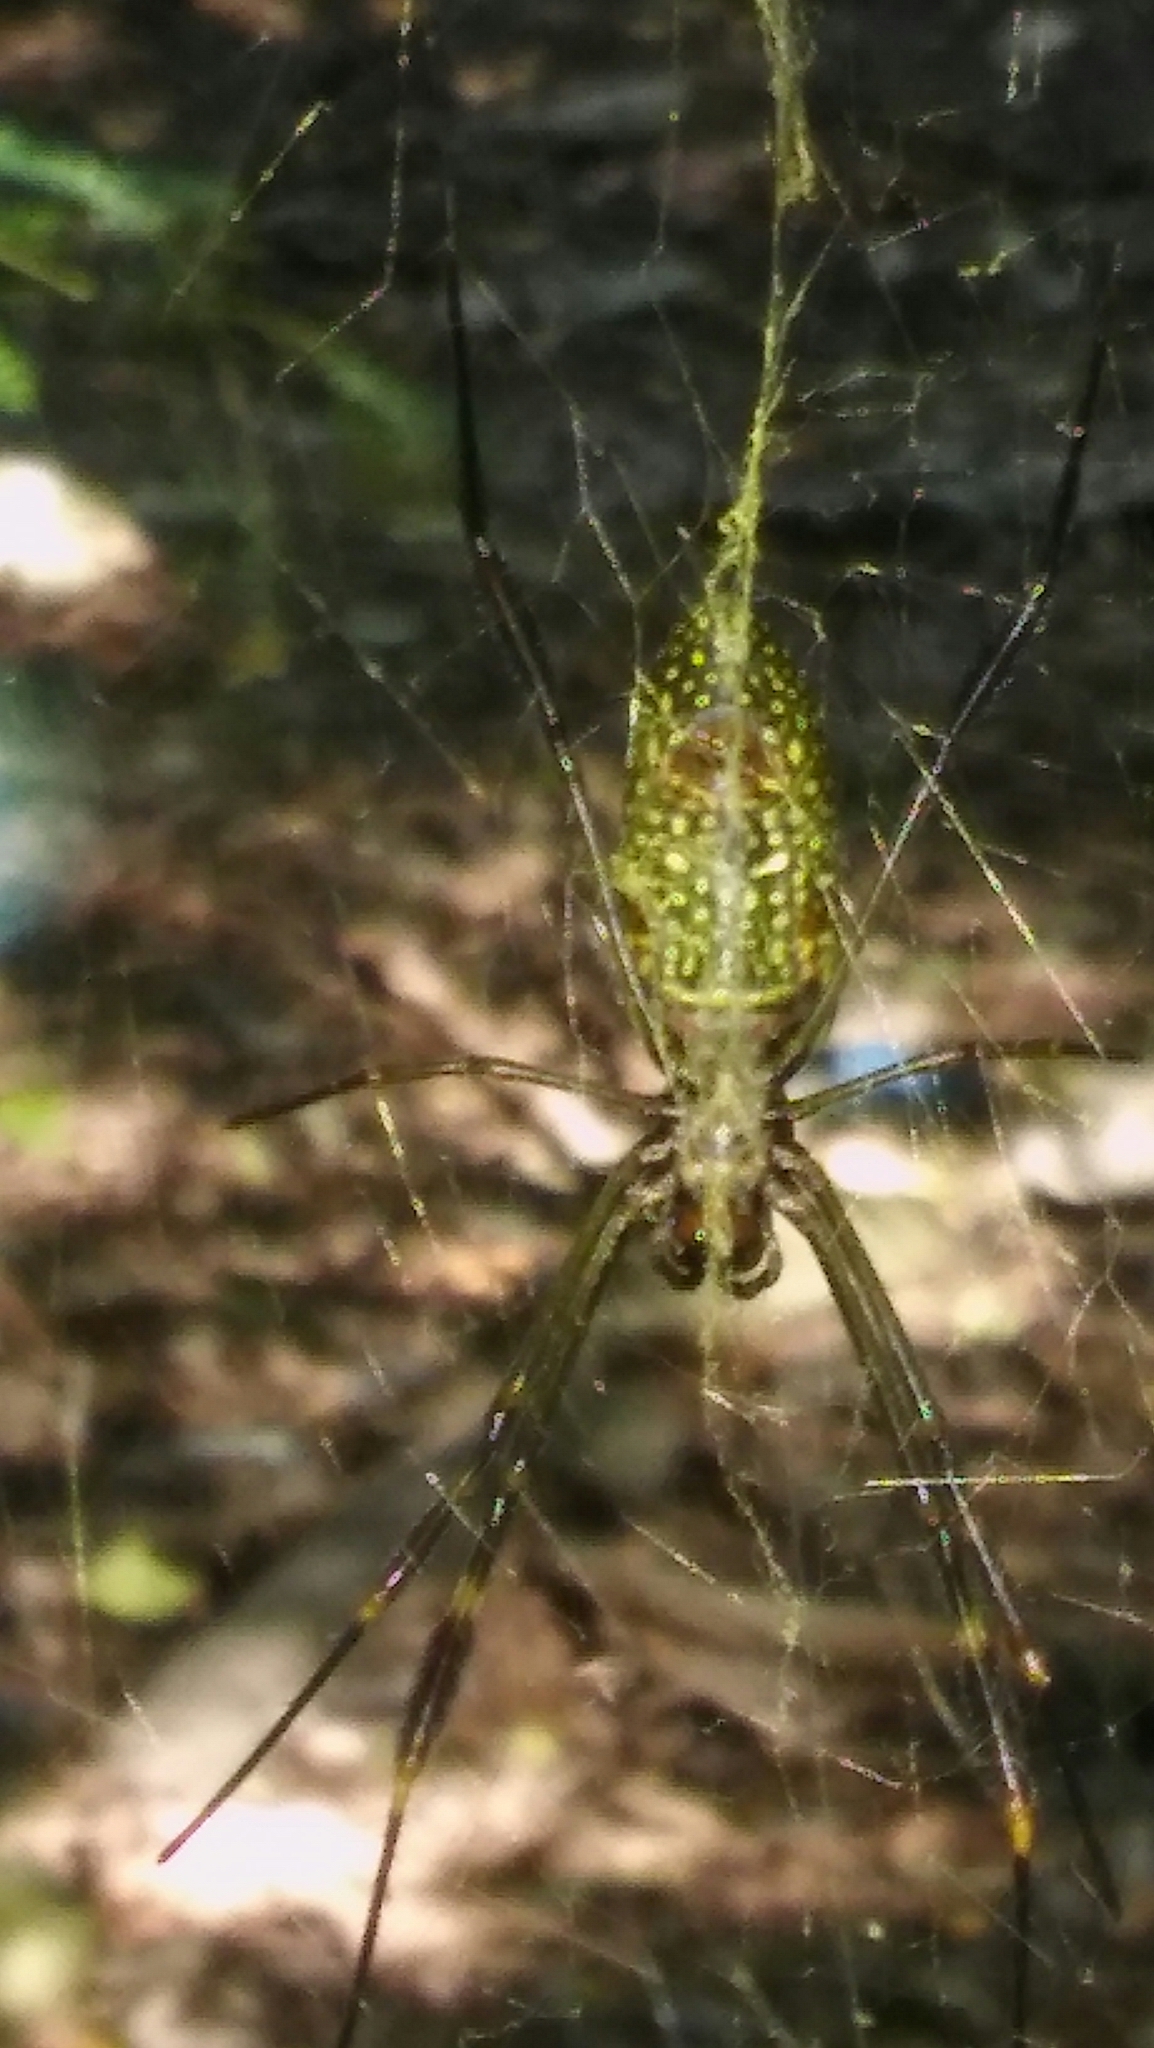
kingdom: Animalia
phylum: Arthropoda
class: Arachnida
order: Araneae
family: Araneidae
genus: Trichonephila
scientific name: Trichonephila clavipes
